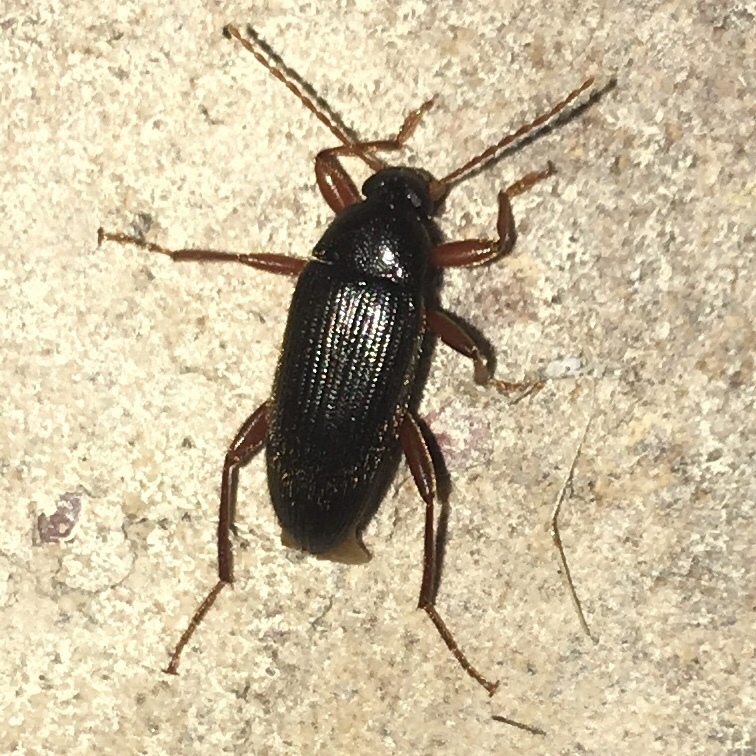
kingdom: Animalia
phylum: Arthropoda
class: Insecta
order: Coleoptera
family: Tenebrionidae
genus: Lobopoda
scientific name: Lobopoda erythrocnemis
